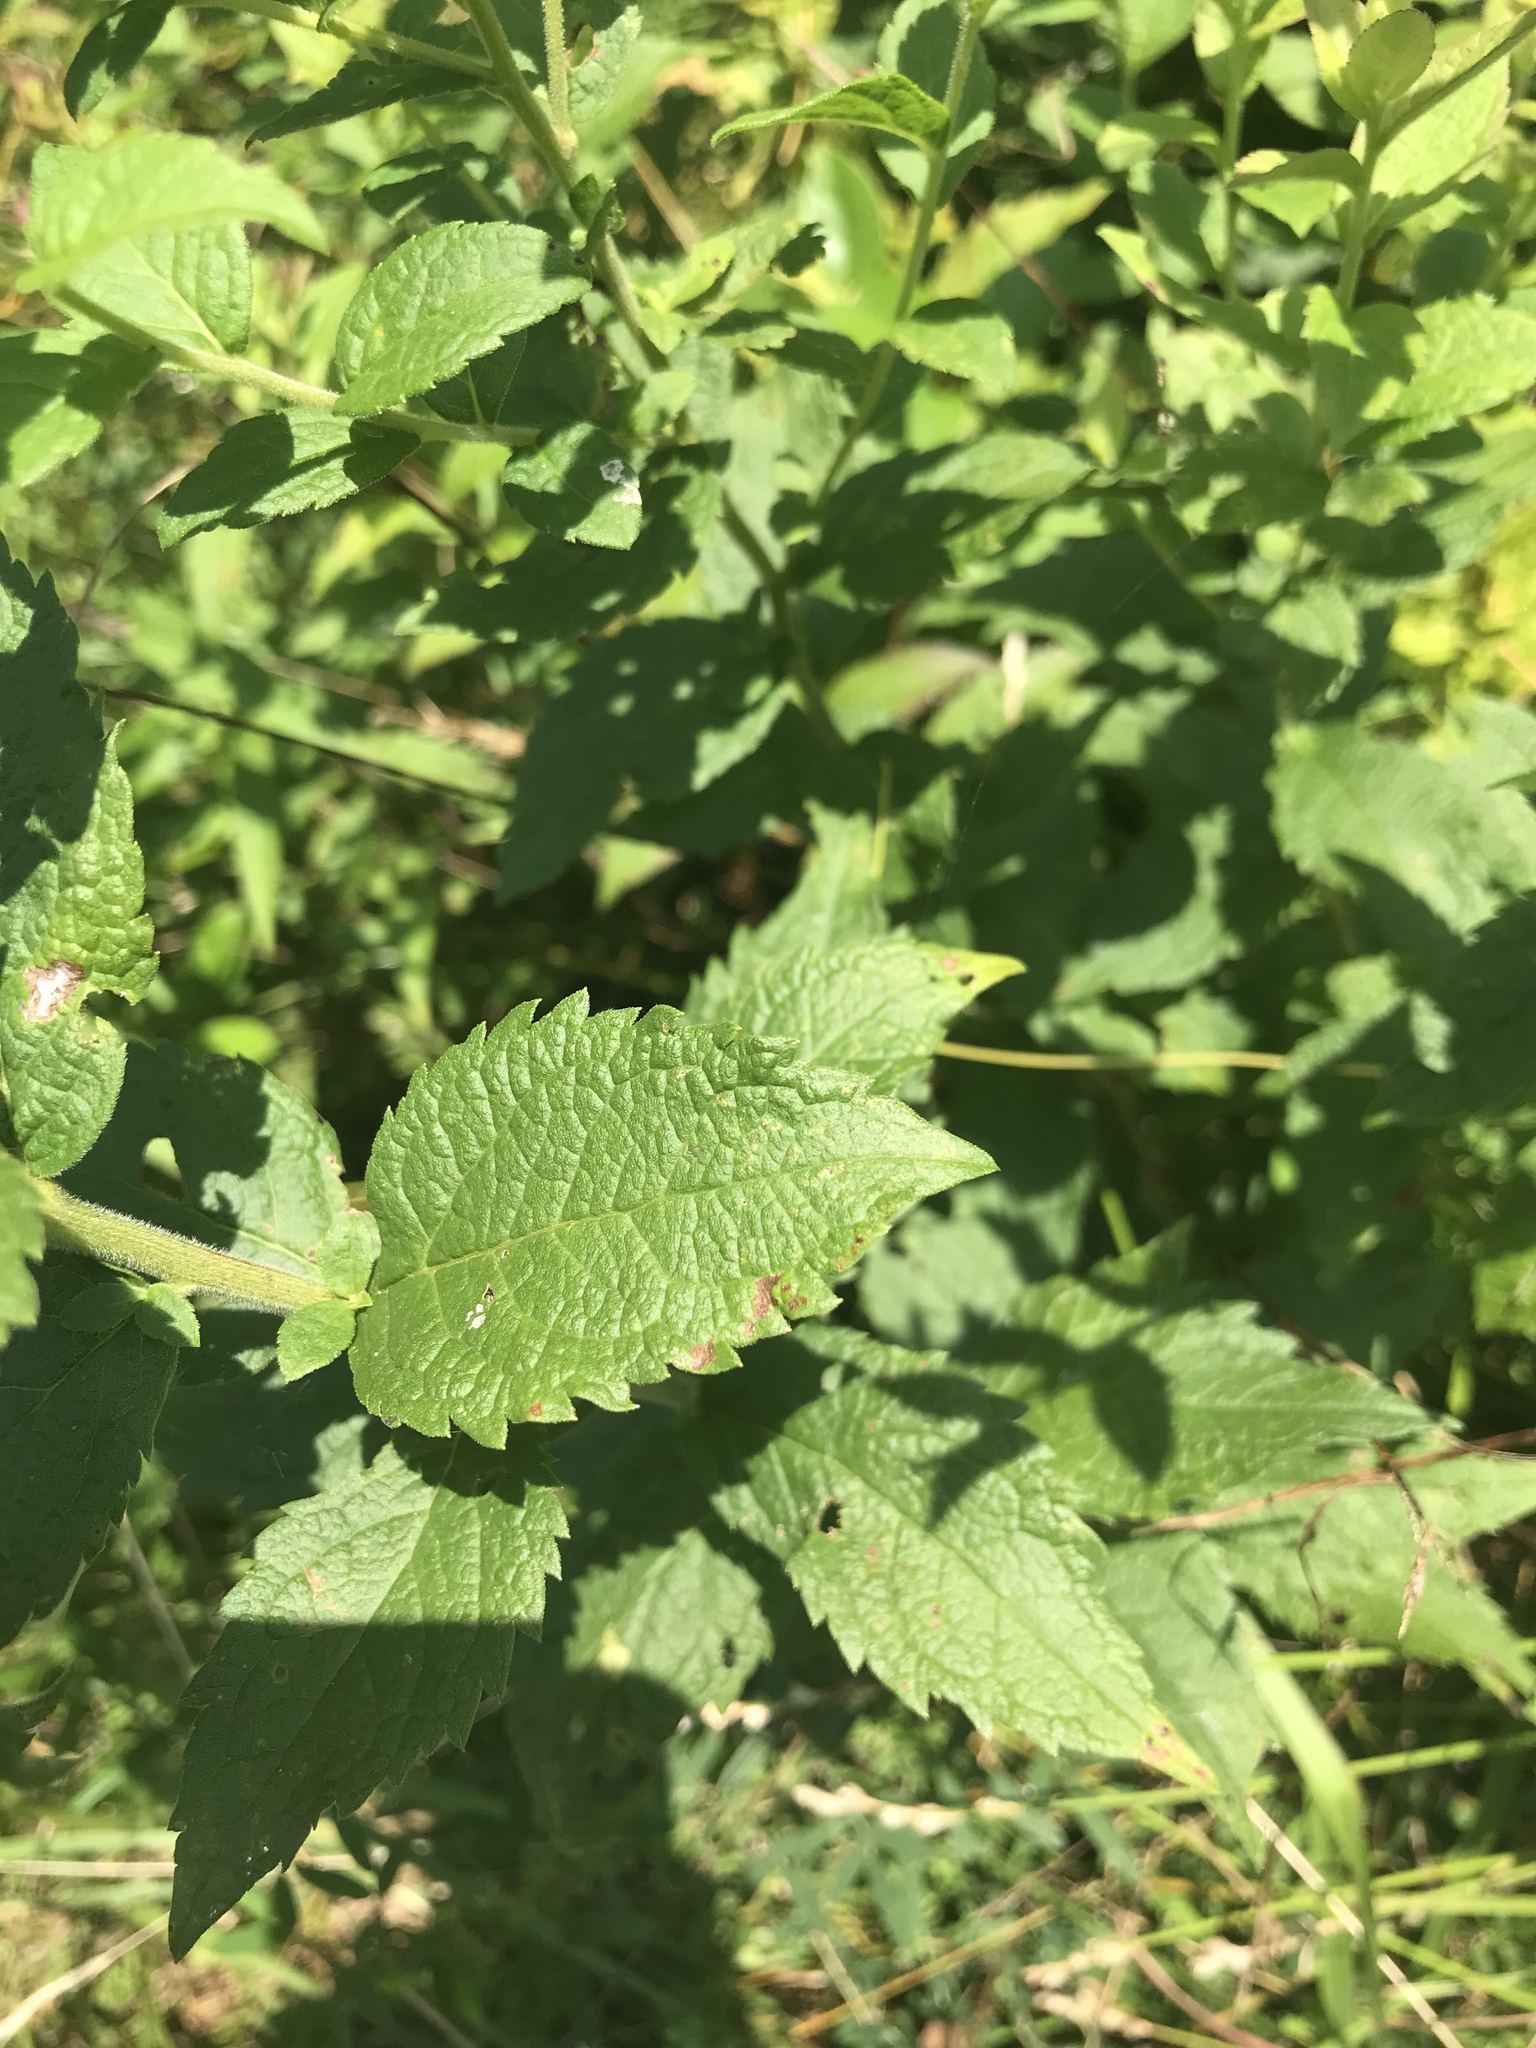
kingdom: Plantae
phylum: Tracheophyta
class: Magnoliopsida
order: Asterales
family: Asteraceae
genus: Solidago
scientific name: Solidago rugosa
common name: Rough-stemmed goldenrod
